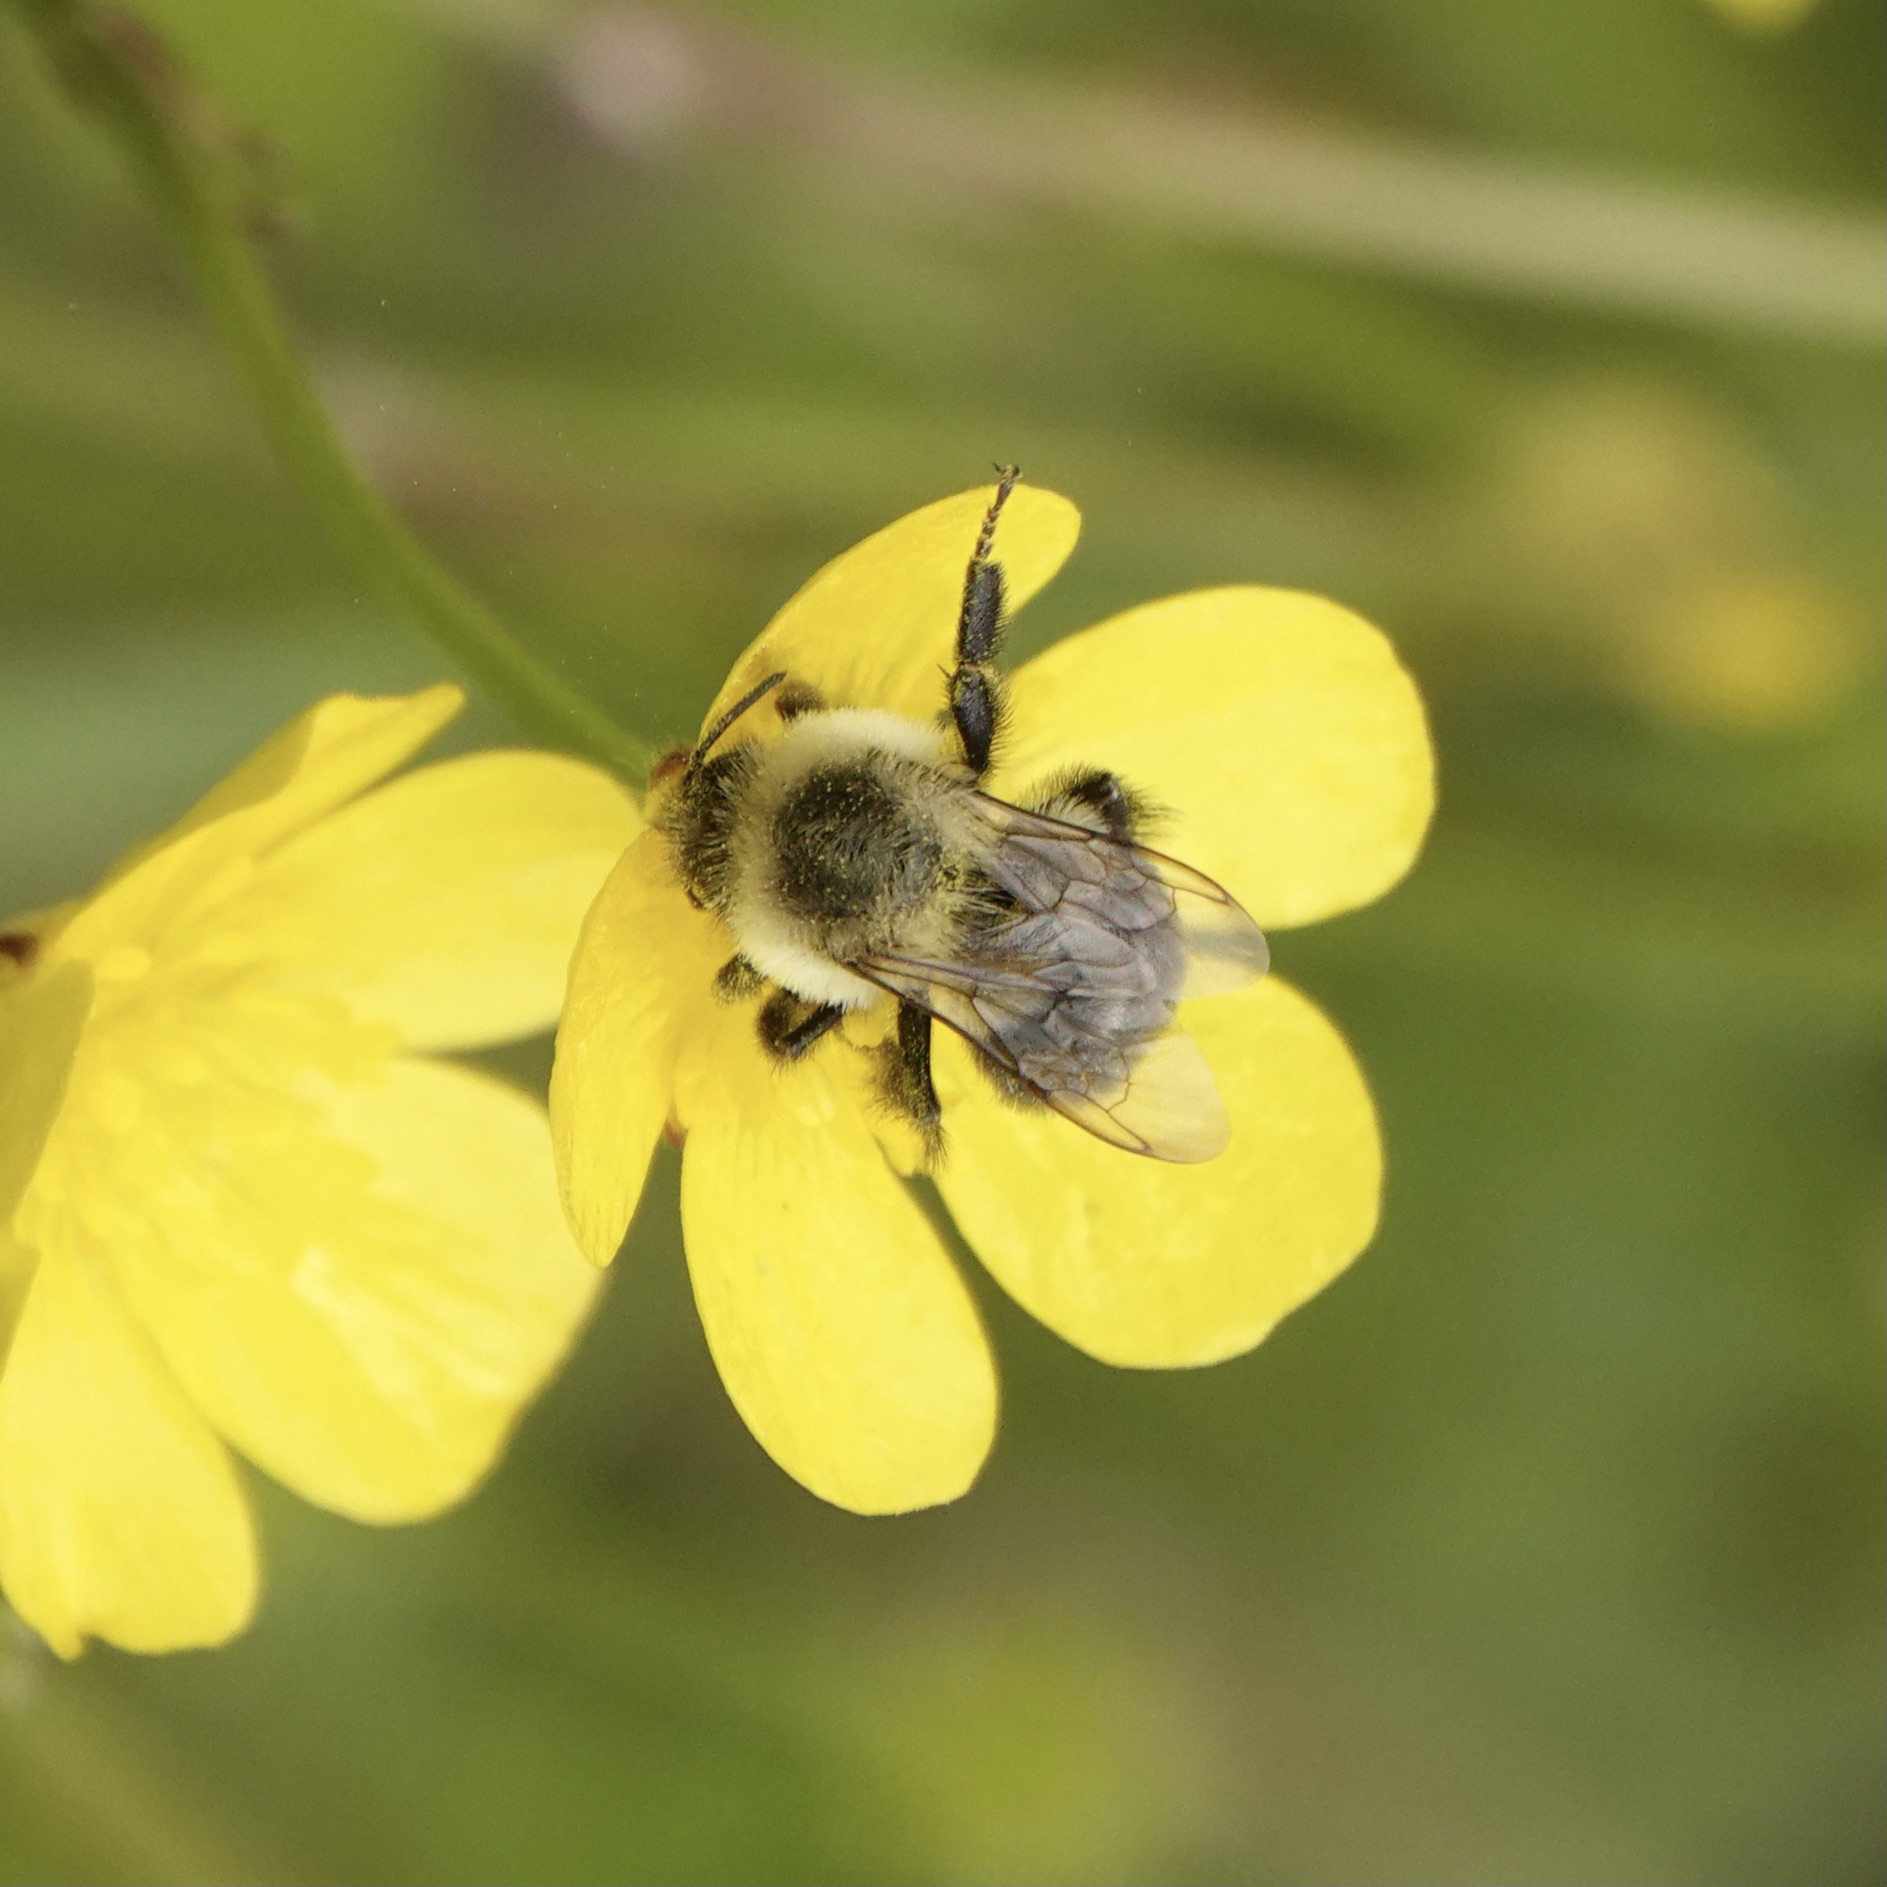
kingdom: Animalia
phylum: Arthropoda
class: Insecta
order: Hymenoptera
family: Apidae
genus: Bombus
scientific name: Bombus impatiens
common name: Common eastern bumble bee
